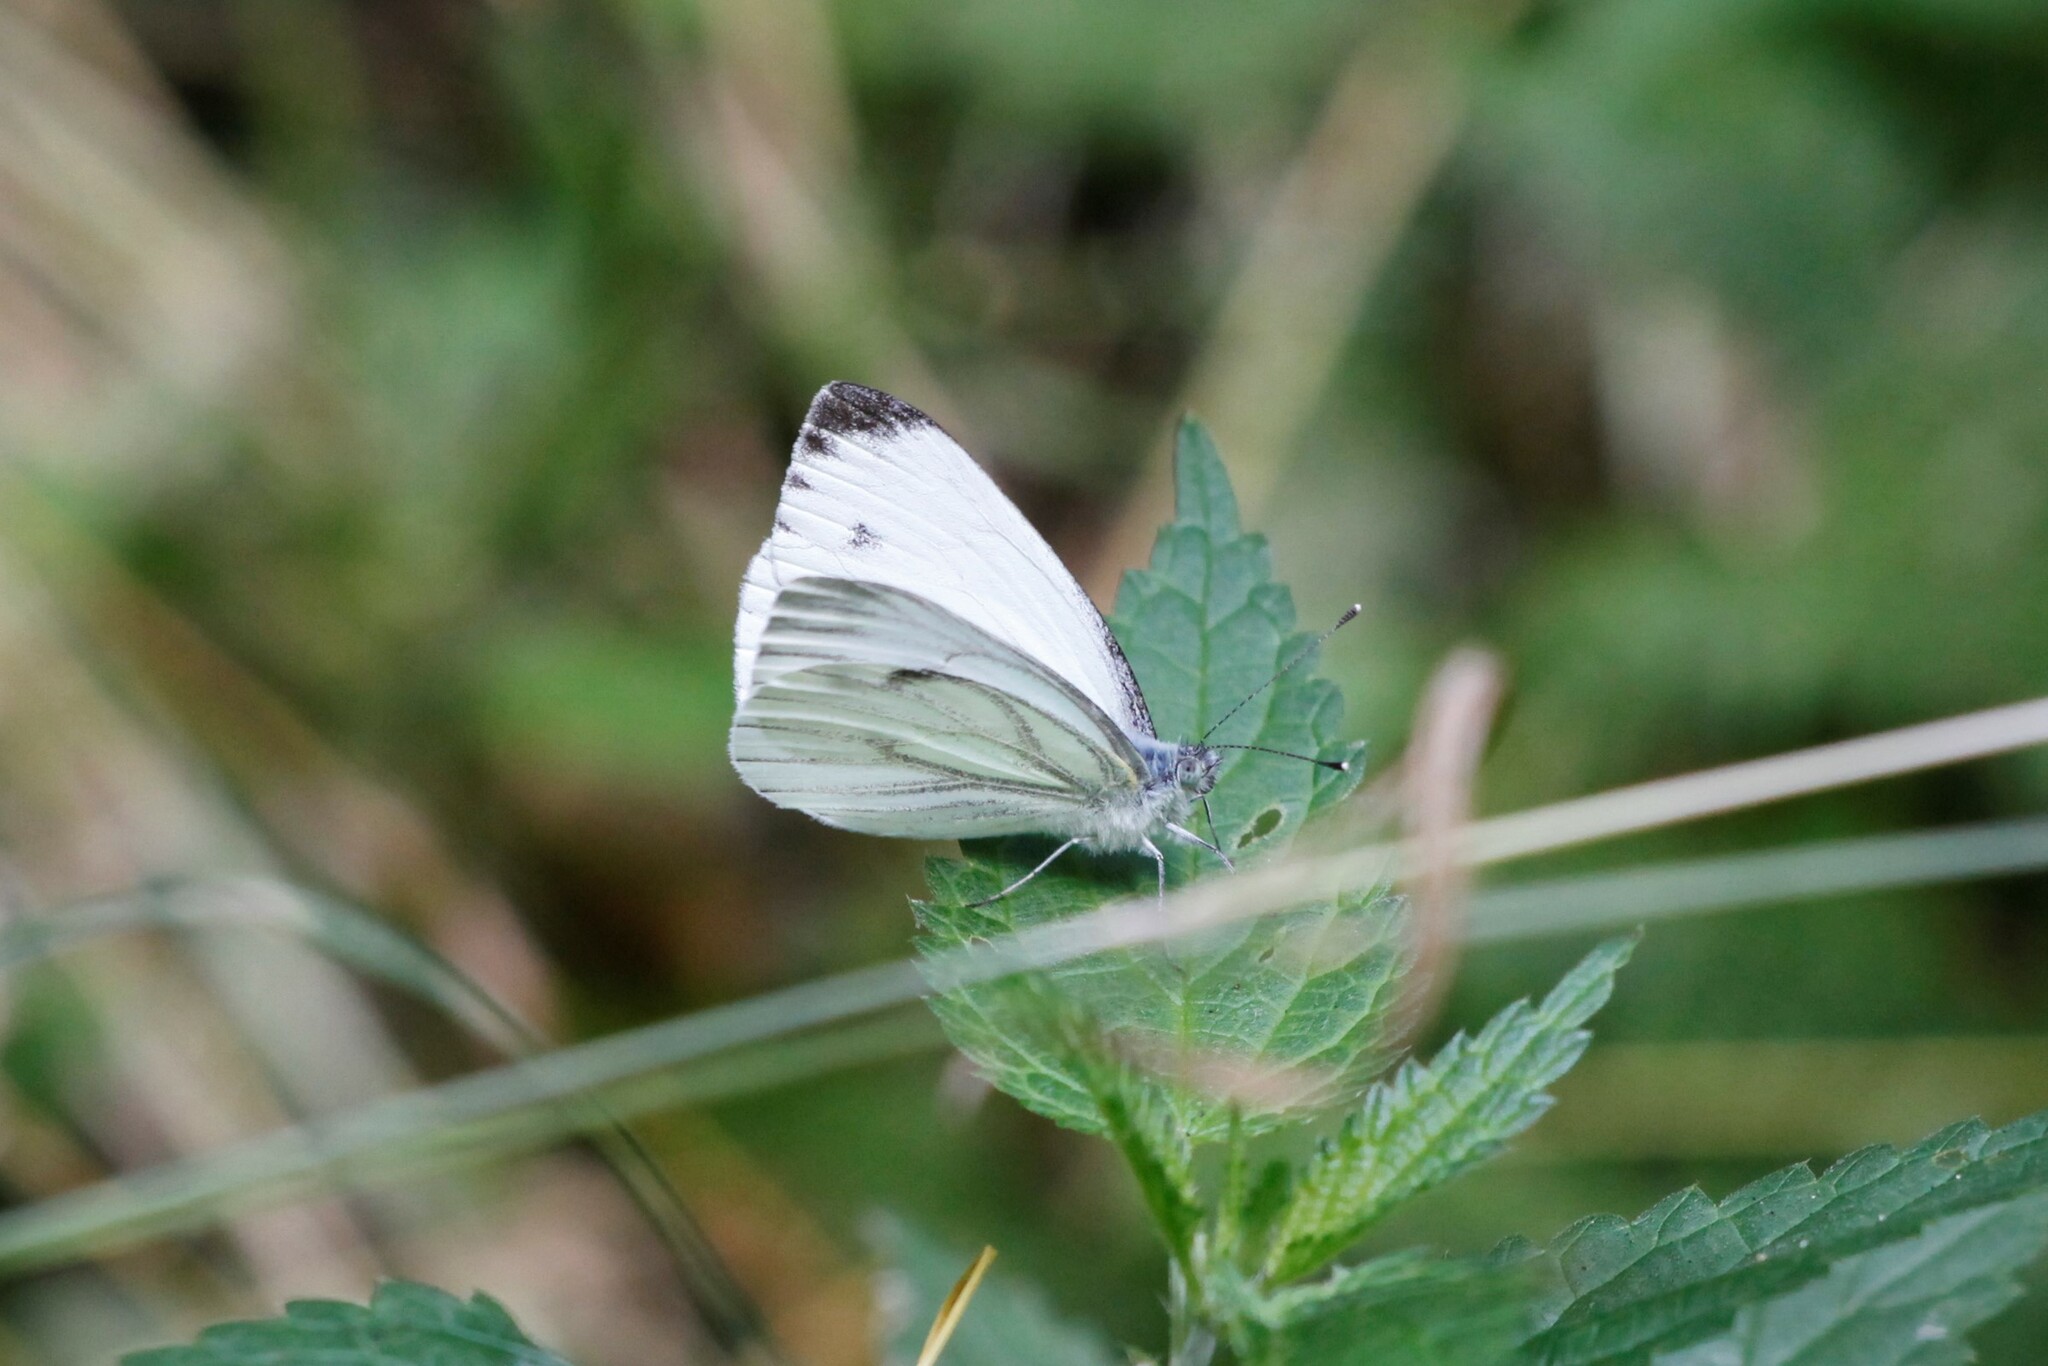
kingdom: Animalia
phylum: Arthropoda
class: Insecta
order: Lepidoptera
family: Pieridae
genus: Pieris
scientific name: Pieris napi
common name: Green-veined white
